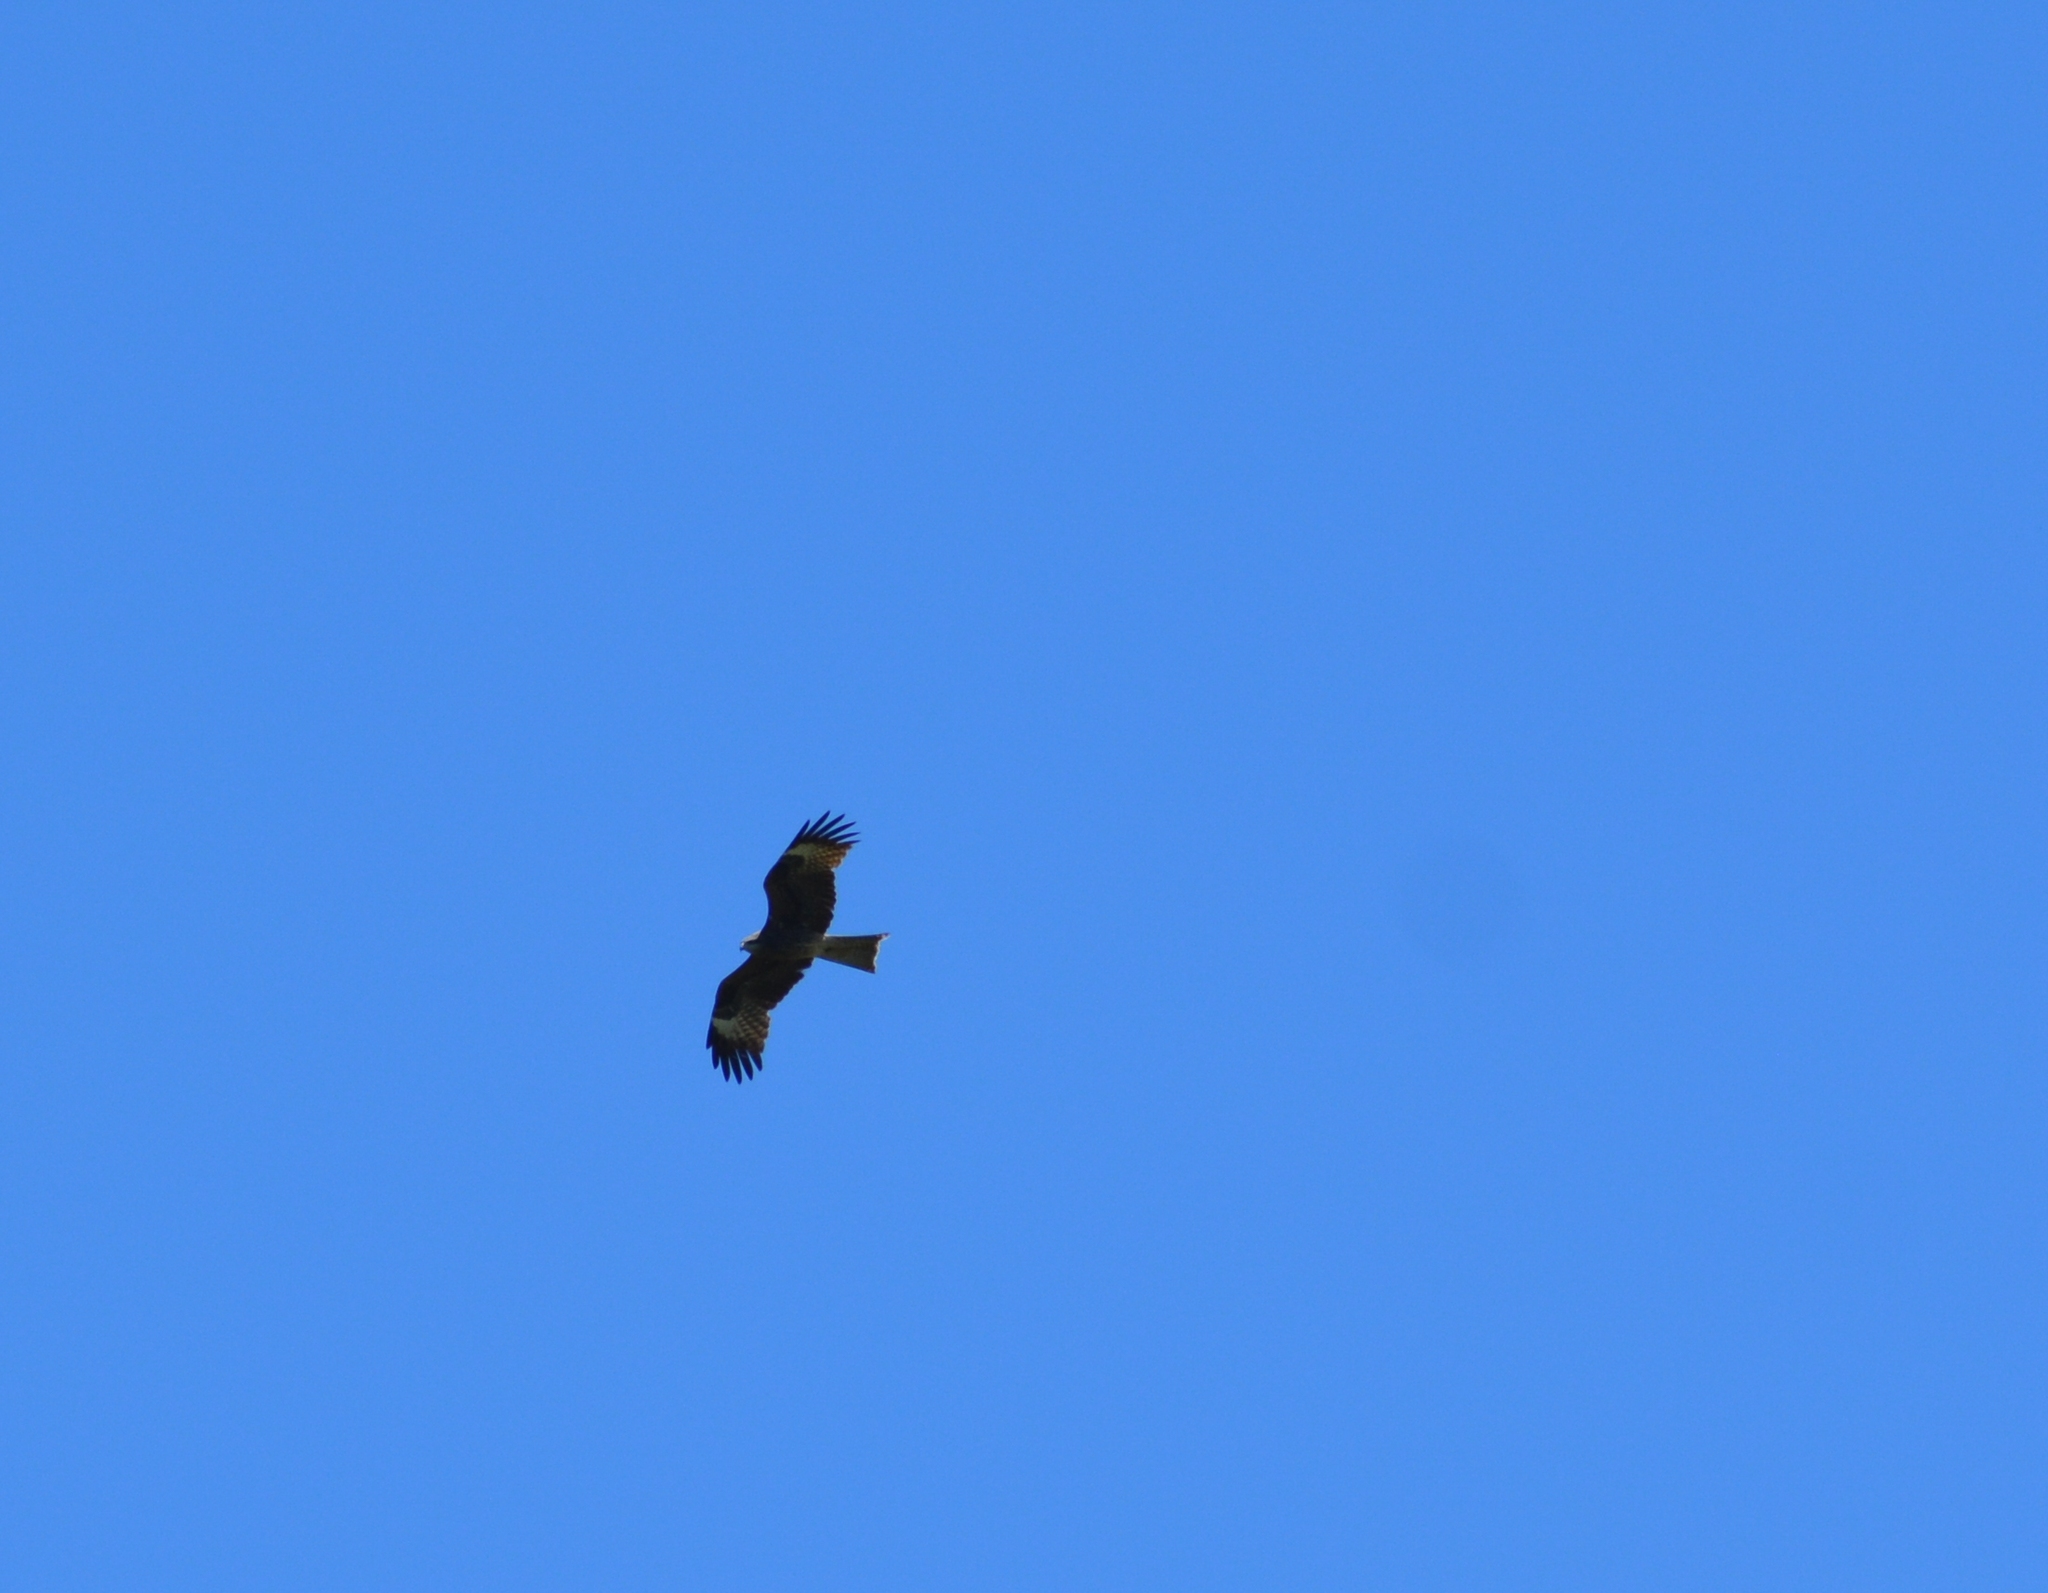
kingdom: Animalia
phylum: Chordata
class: Aves
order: Accipitriformes
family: Accipitridae
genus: Milvus
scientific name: Milvus migrans
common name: Black kite
